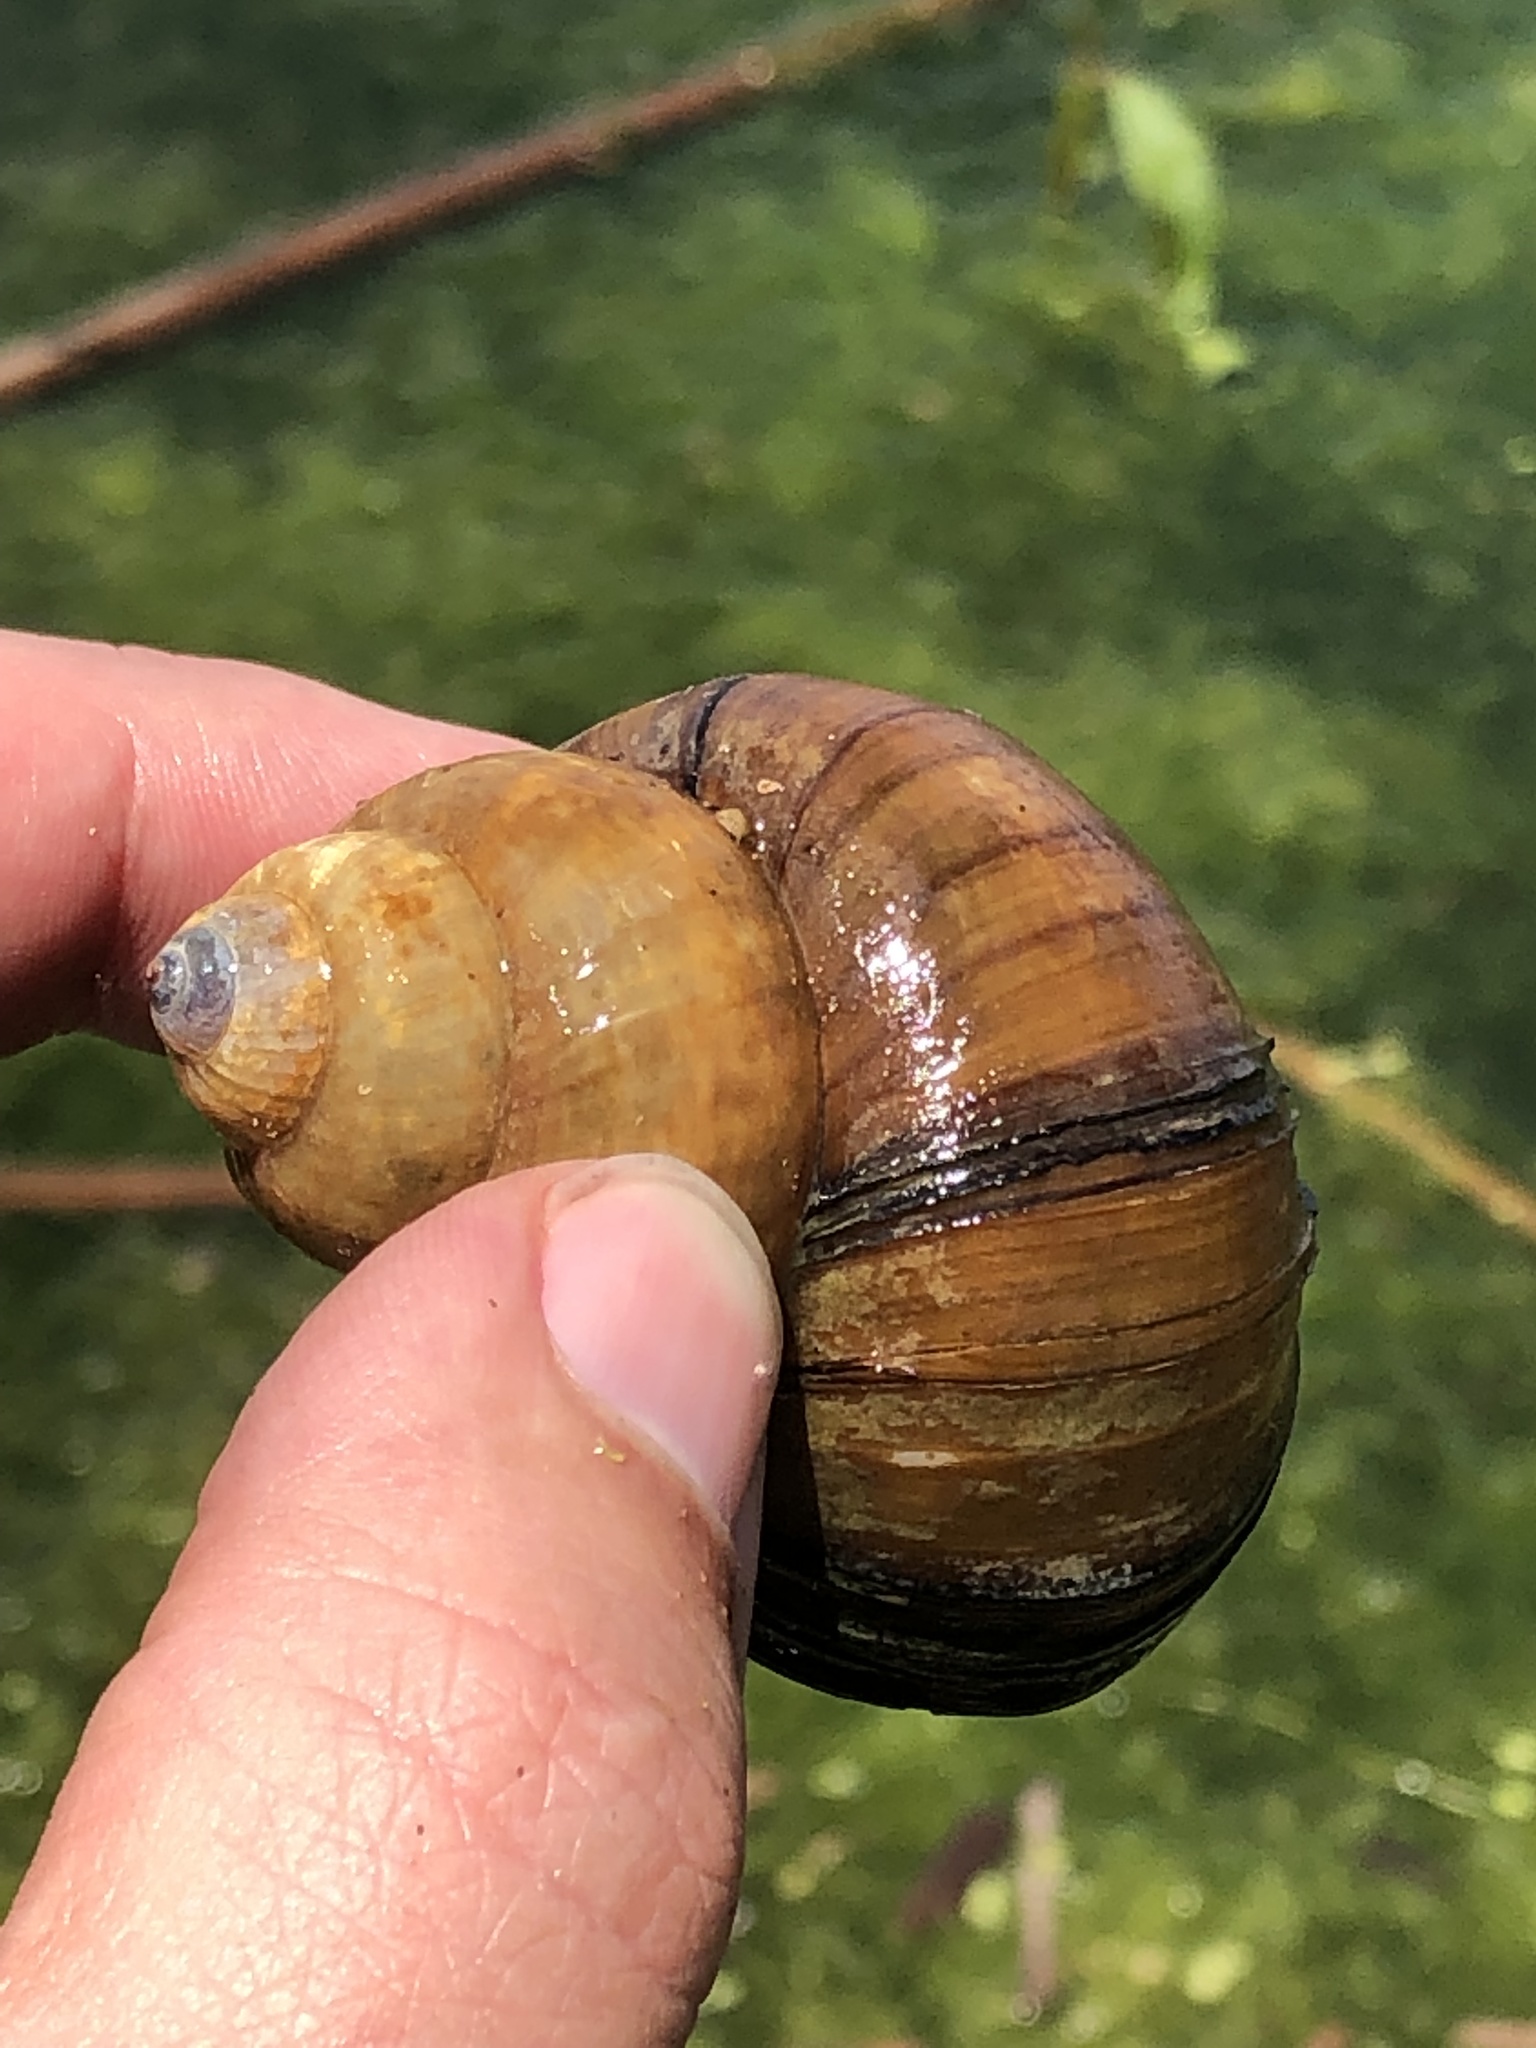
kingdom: Animalia
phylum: Mollusca
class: Gastropoda
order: Architaenioglossa
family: Viviparidae
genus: Cipangopaludina
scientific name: Cipangopaludina chinensis
